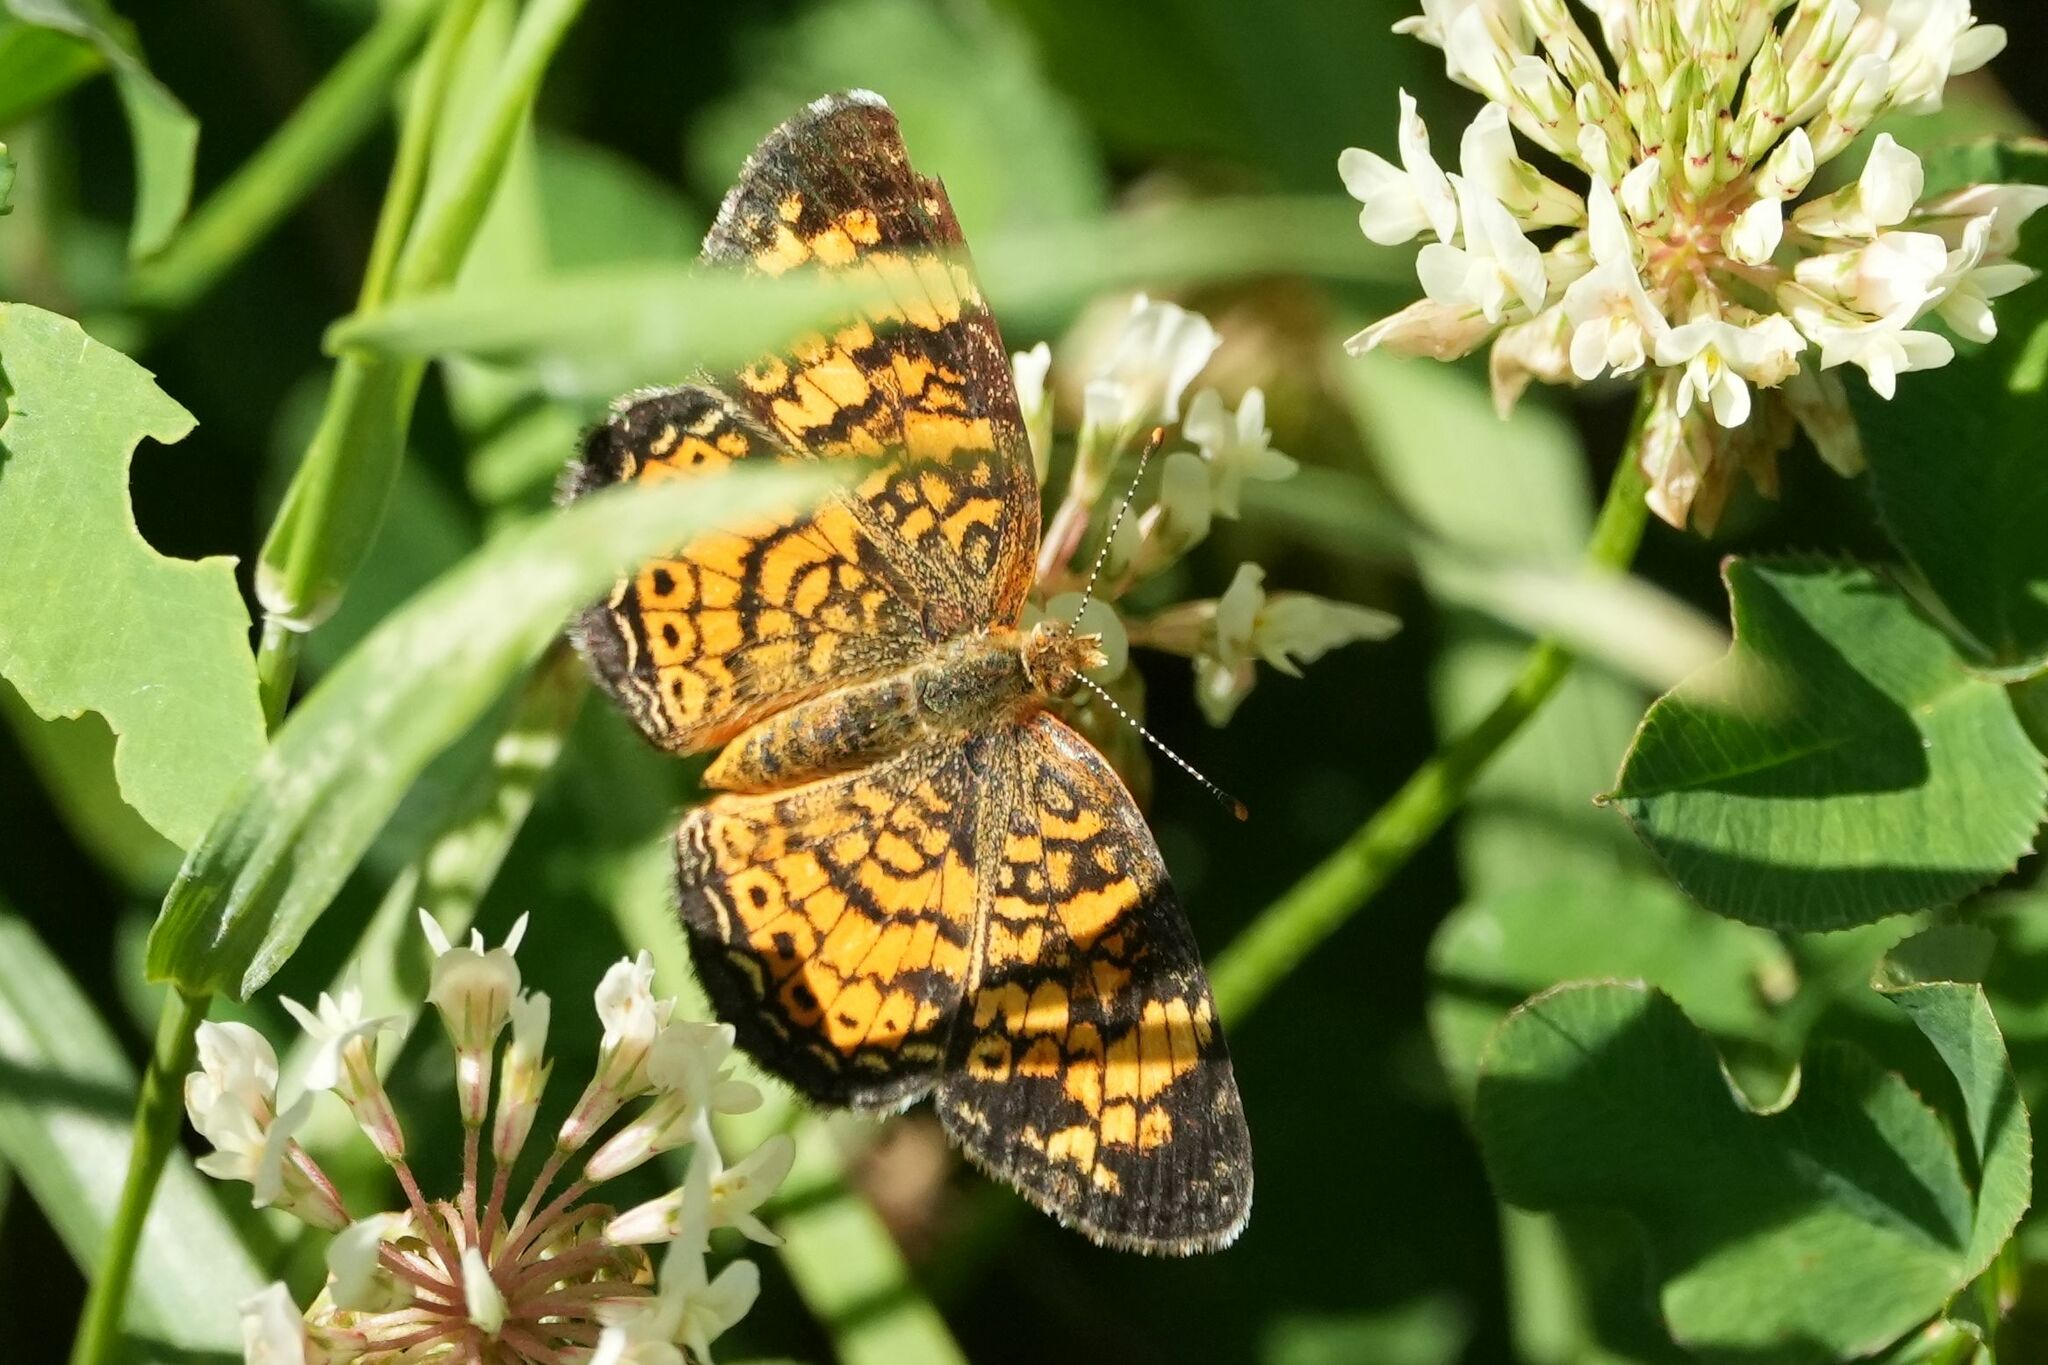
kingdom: Animalia
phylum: Arthropoda
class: Insecta
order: Lepidoptera
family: Nymphalidae
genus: Phyciodes
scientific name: Phyciodes tharos
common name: Pearl crescent
